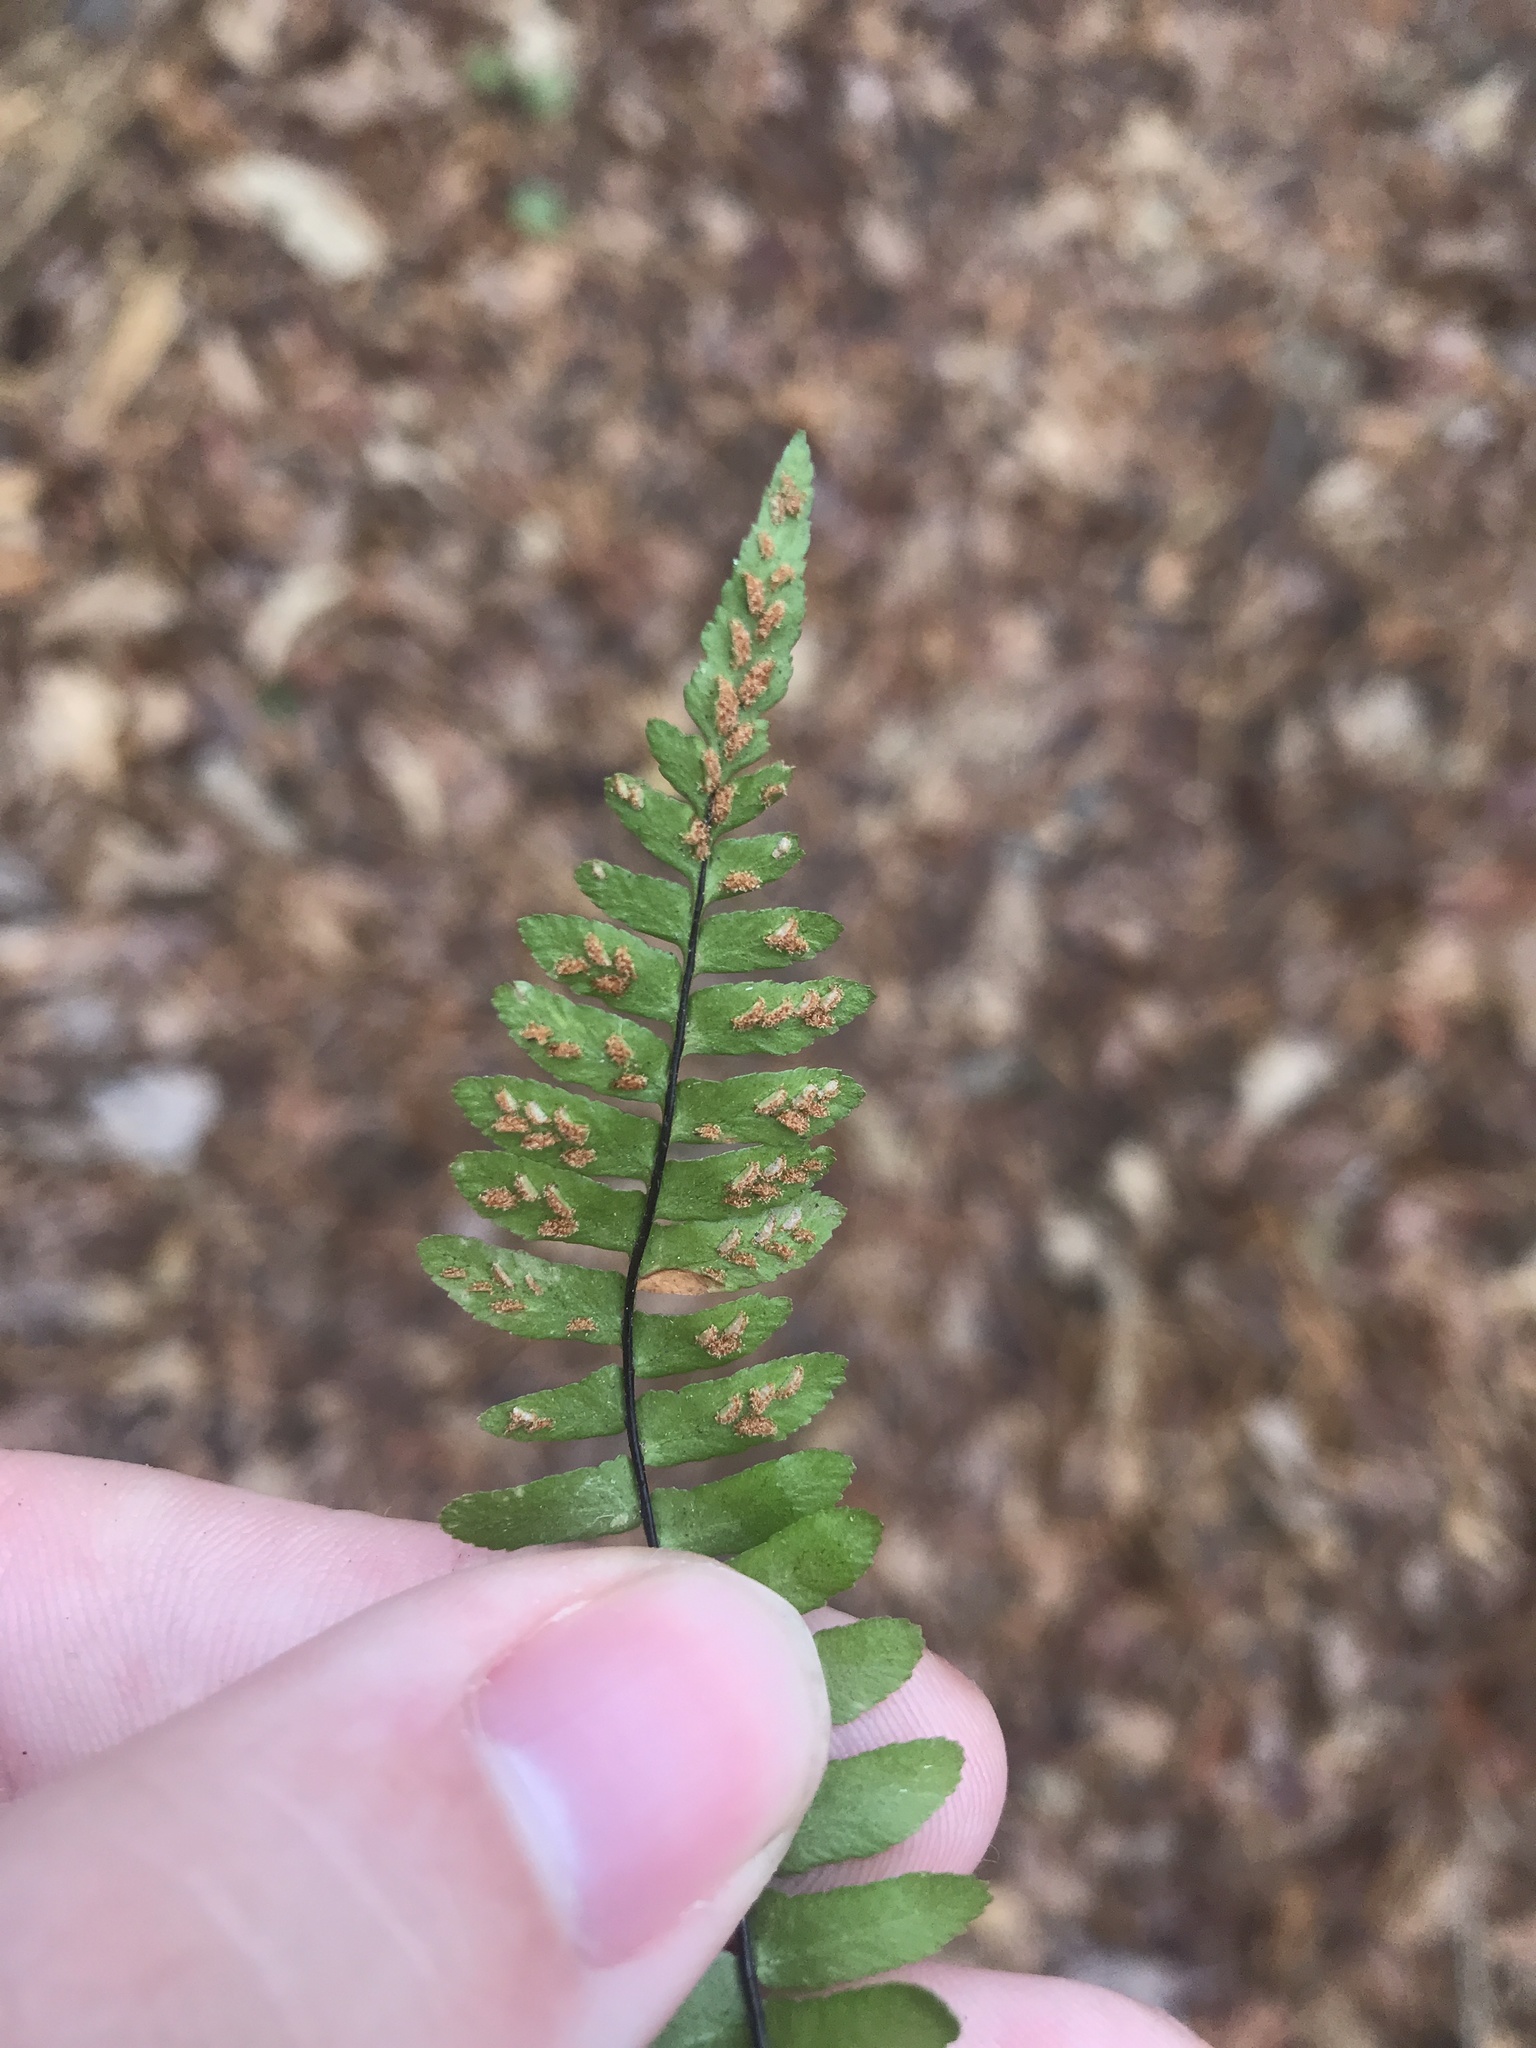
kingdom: Plantae
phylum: Tracheophyta
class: Polypodiopsida
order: Polypodiales
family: Aspleniaceae
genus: Asplenium
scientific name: Asplenium platyneuron
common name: Ebony spleenwort
